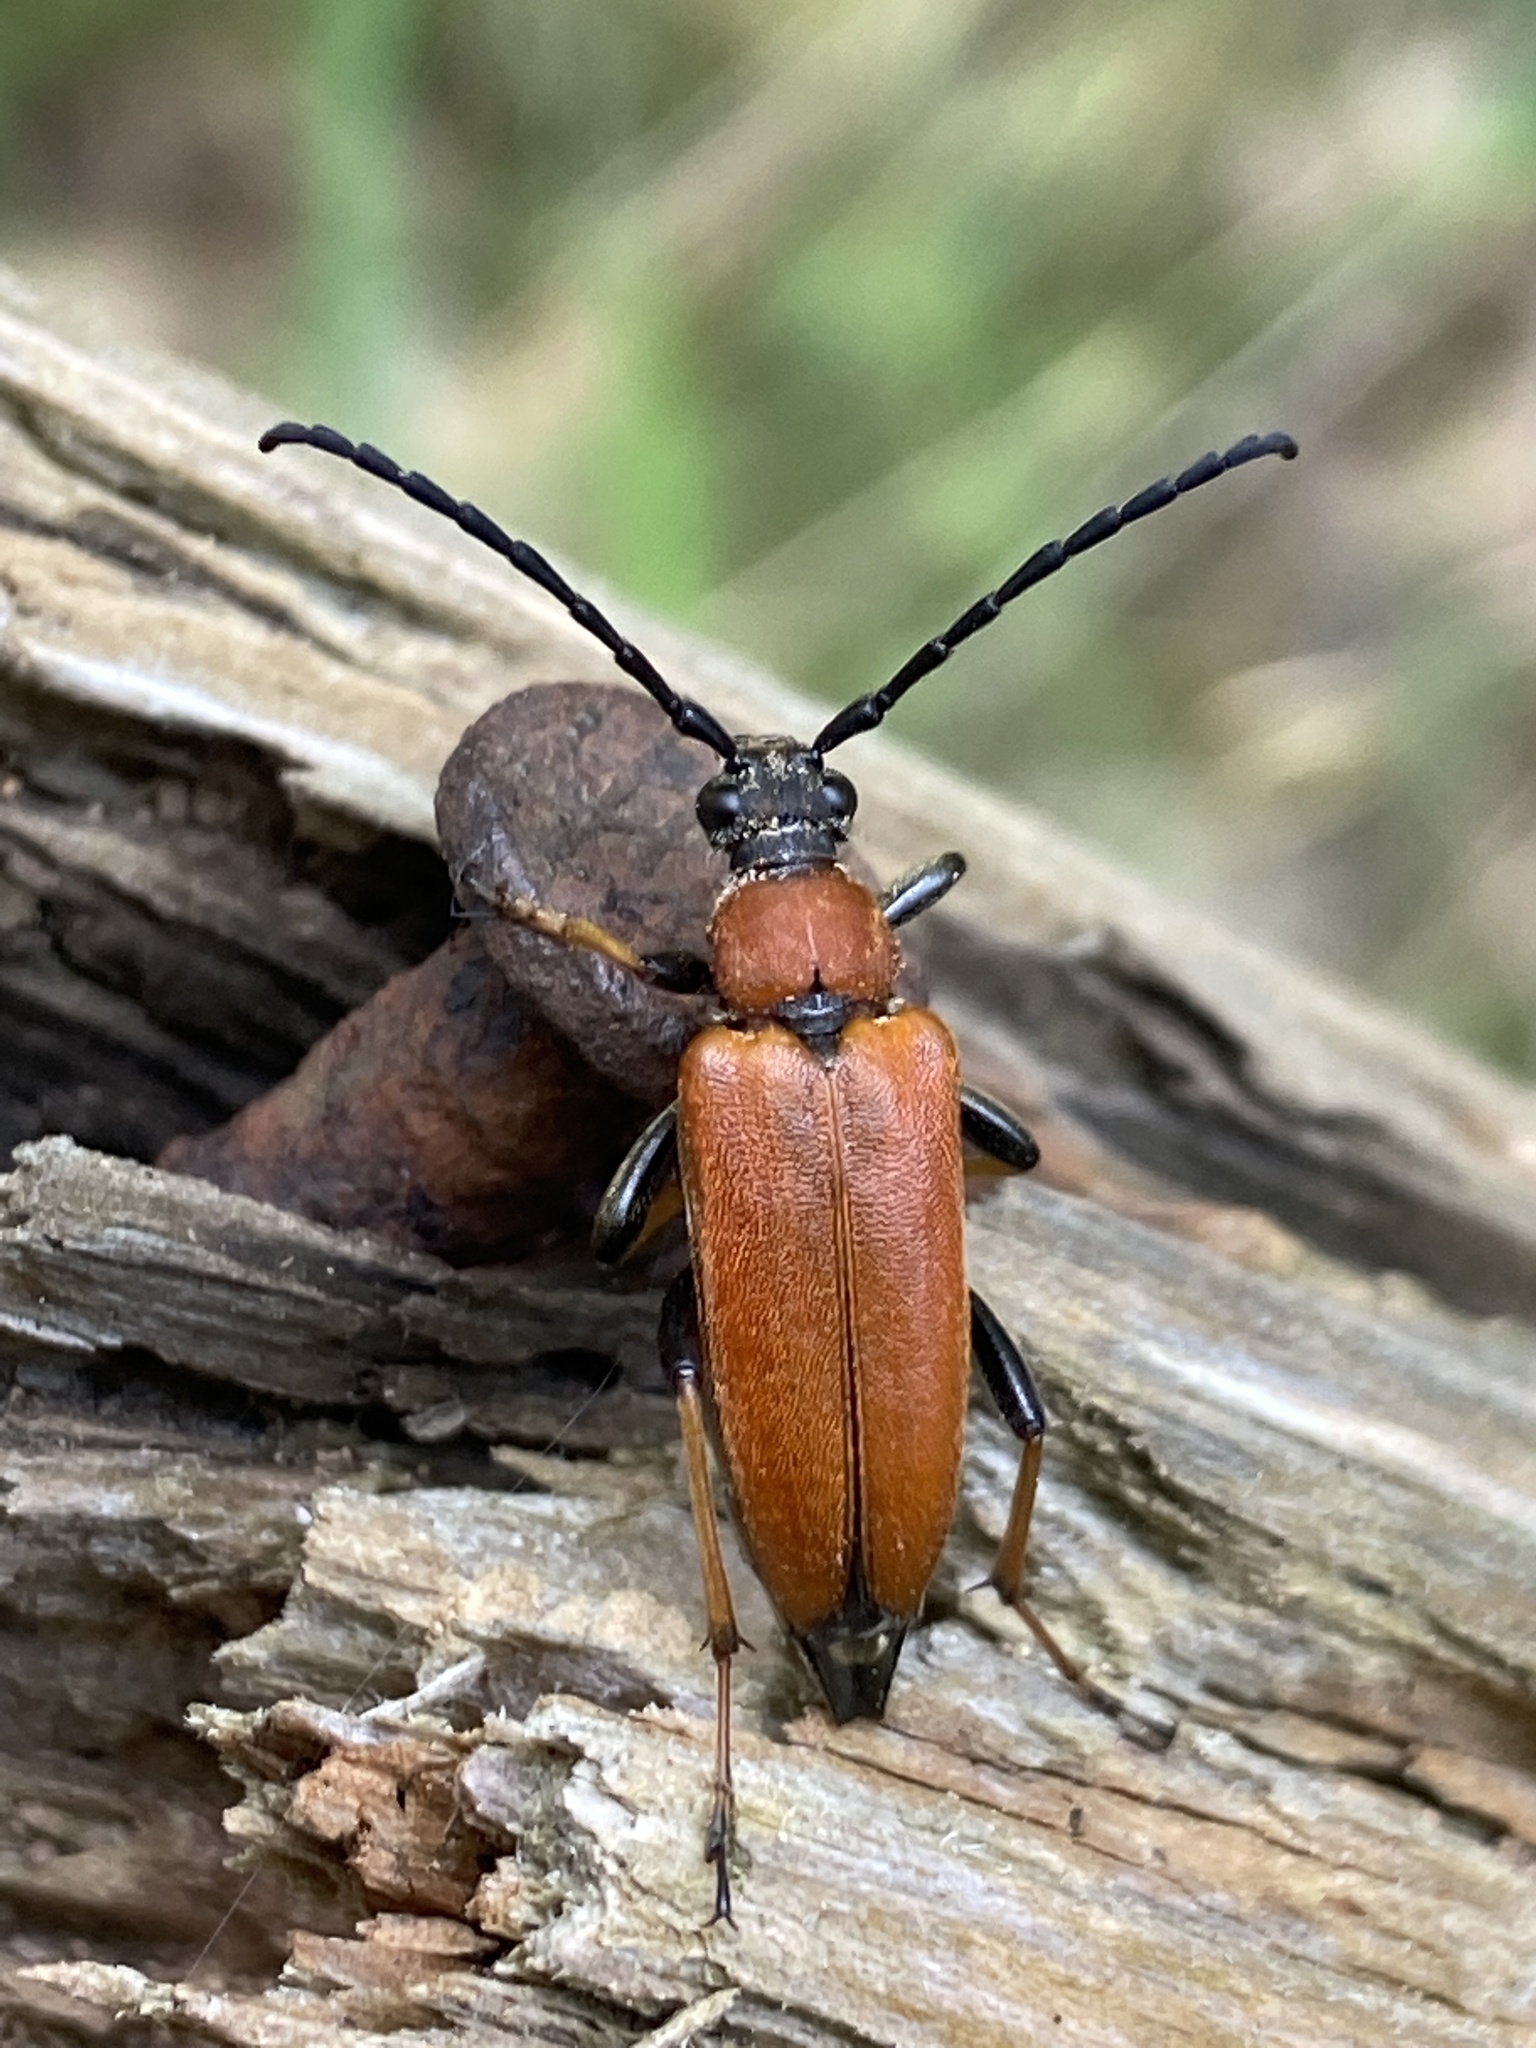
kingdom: Animalia
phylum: Arthropoda
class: Insecta
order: Coleoptera
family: Cerambycidae
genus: Stictoleptura
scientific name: Stictoleptura rubra
